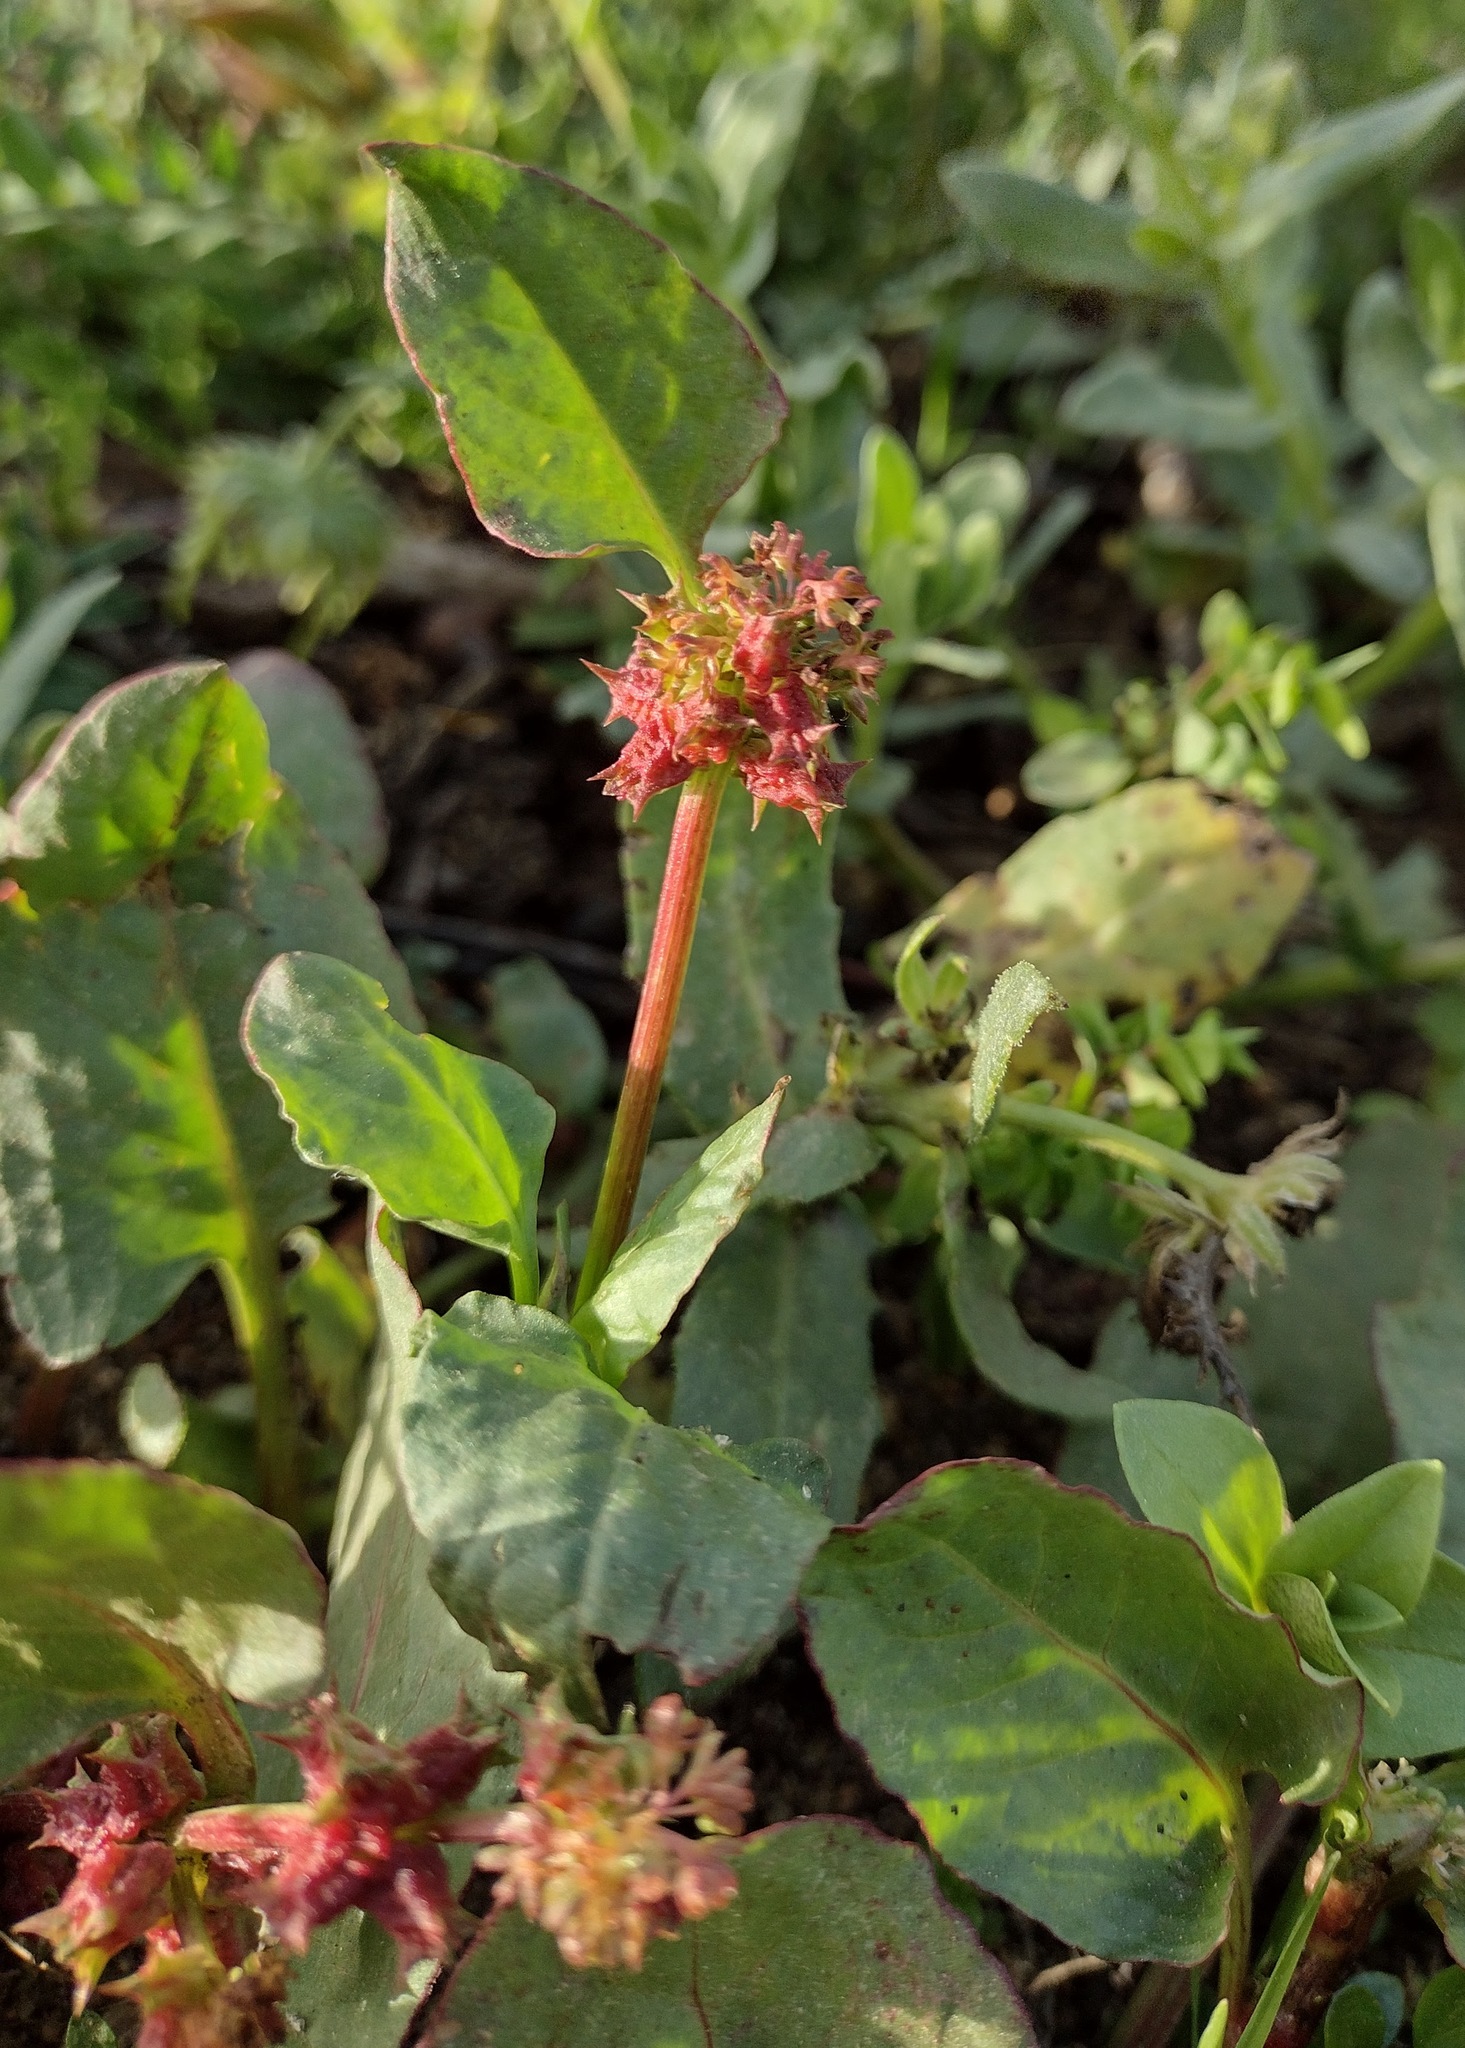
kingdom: Plantae
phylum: Tracheophyta
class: Magnoliopsida
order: Caryophyllales
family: Polygonaceae
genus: Rumex
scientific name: Rumex spinosus
